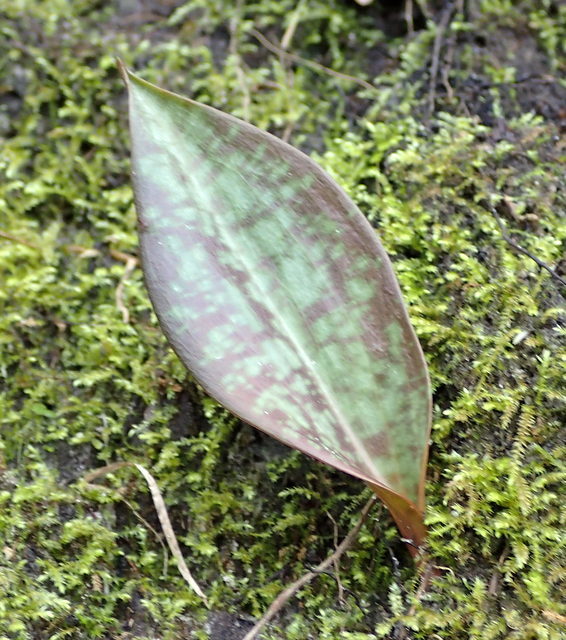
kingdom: Plantae
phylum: Tracheophyta
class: Liliopsida
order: Liliales
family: Liliaceae
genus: Erythronium
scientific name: Erythronium umbilicatum
